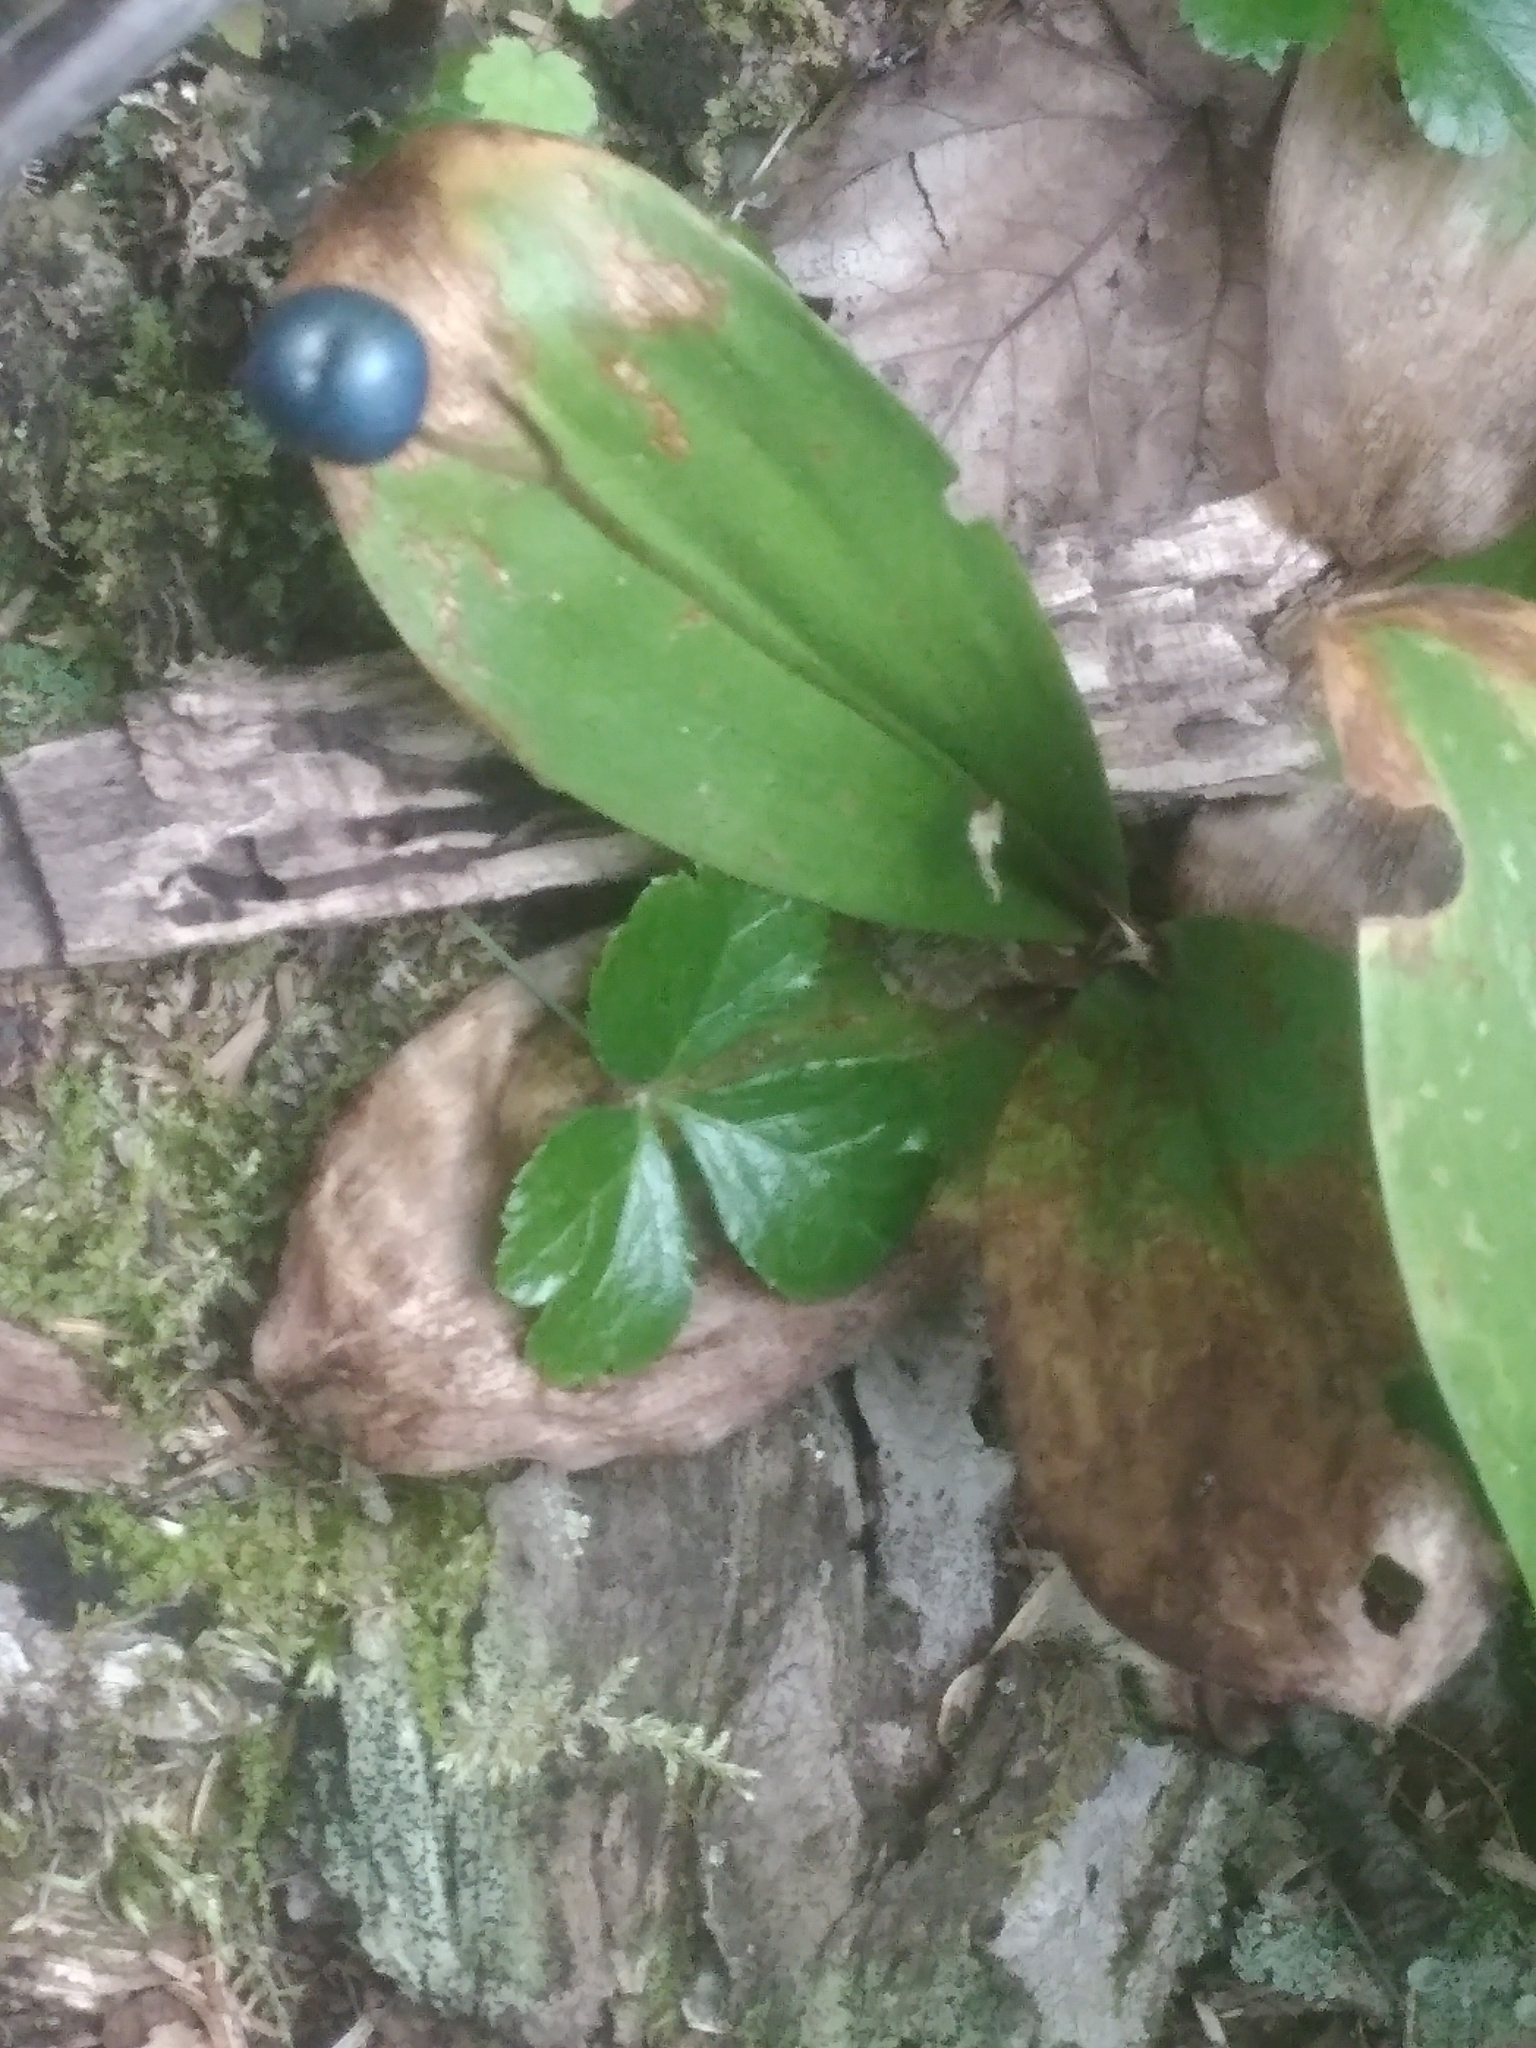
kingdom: Plantae
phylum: Tracheophyta
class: Liliopsida
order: Liliales
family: Liliaceae
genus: Clintonia
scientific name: Clintonia borealis
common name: Yellow clintonia
